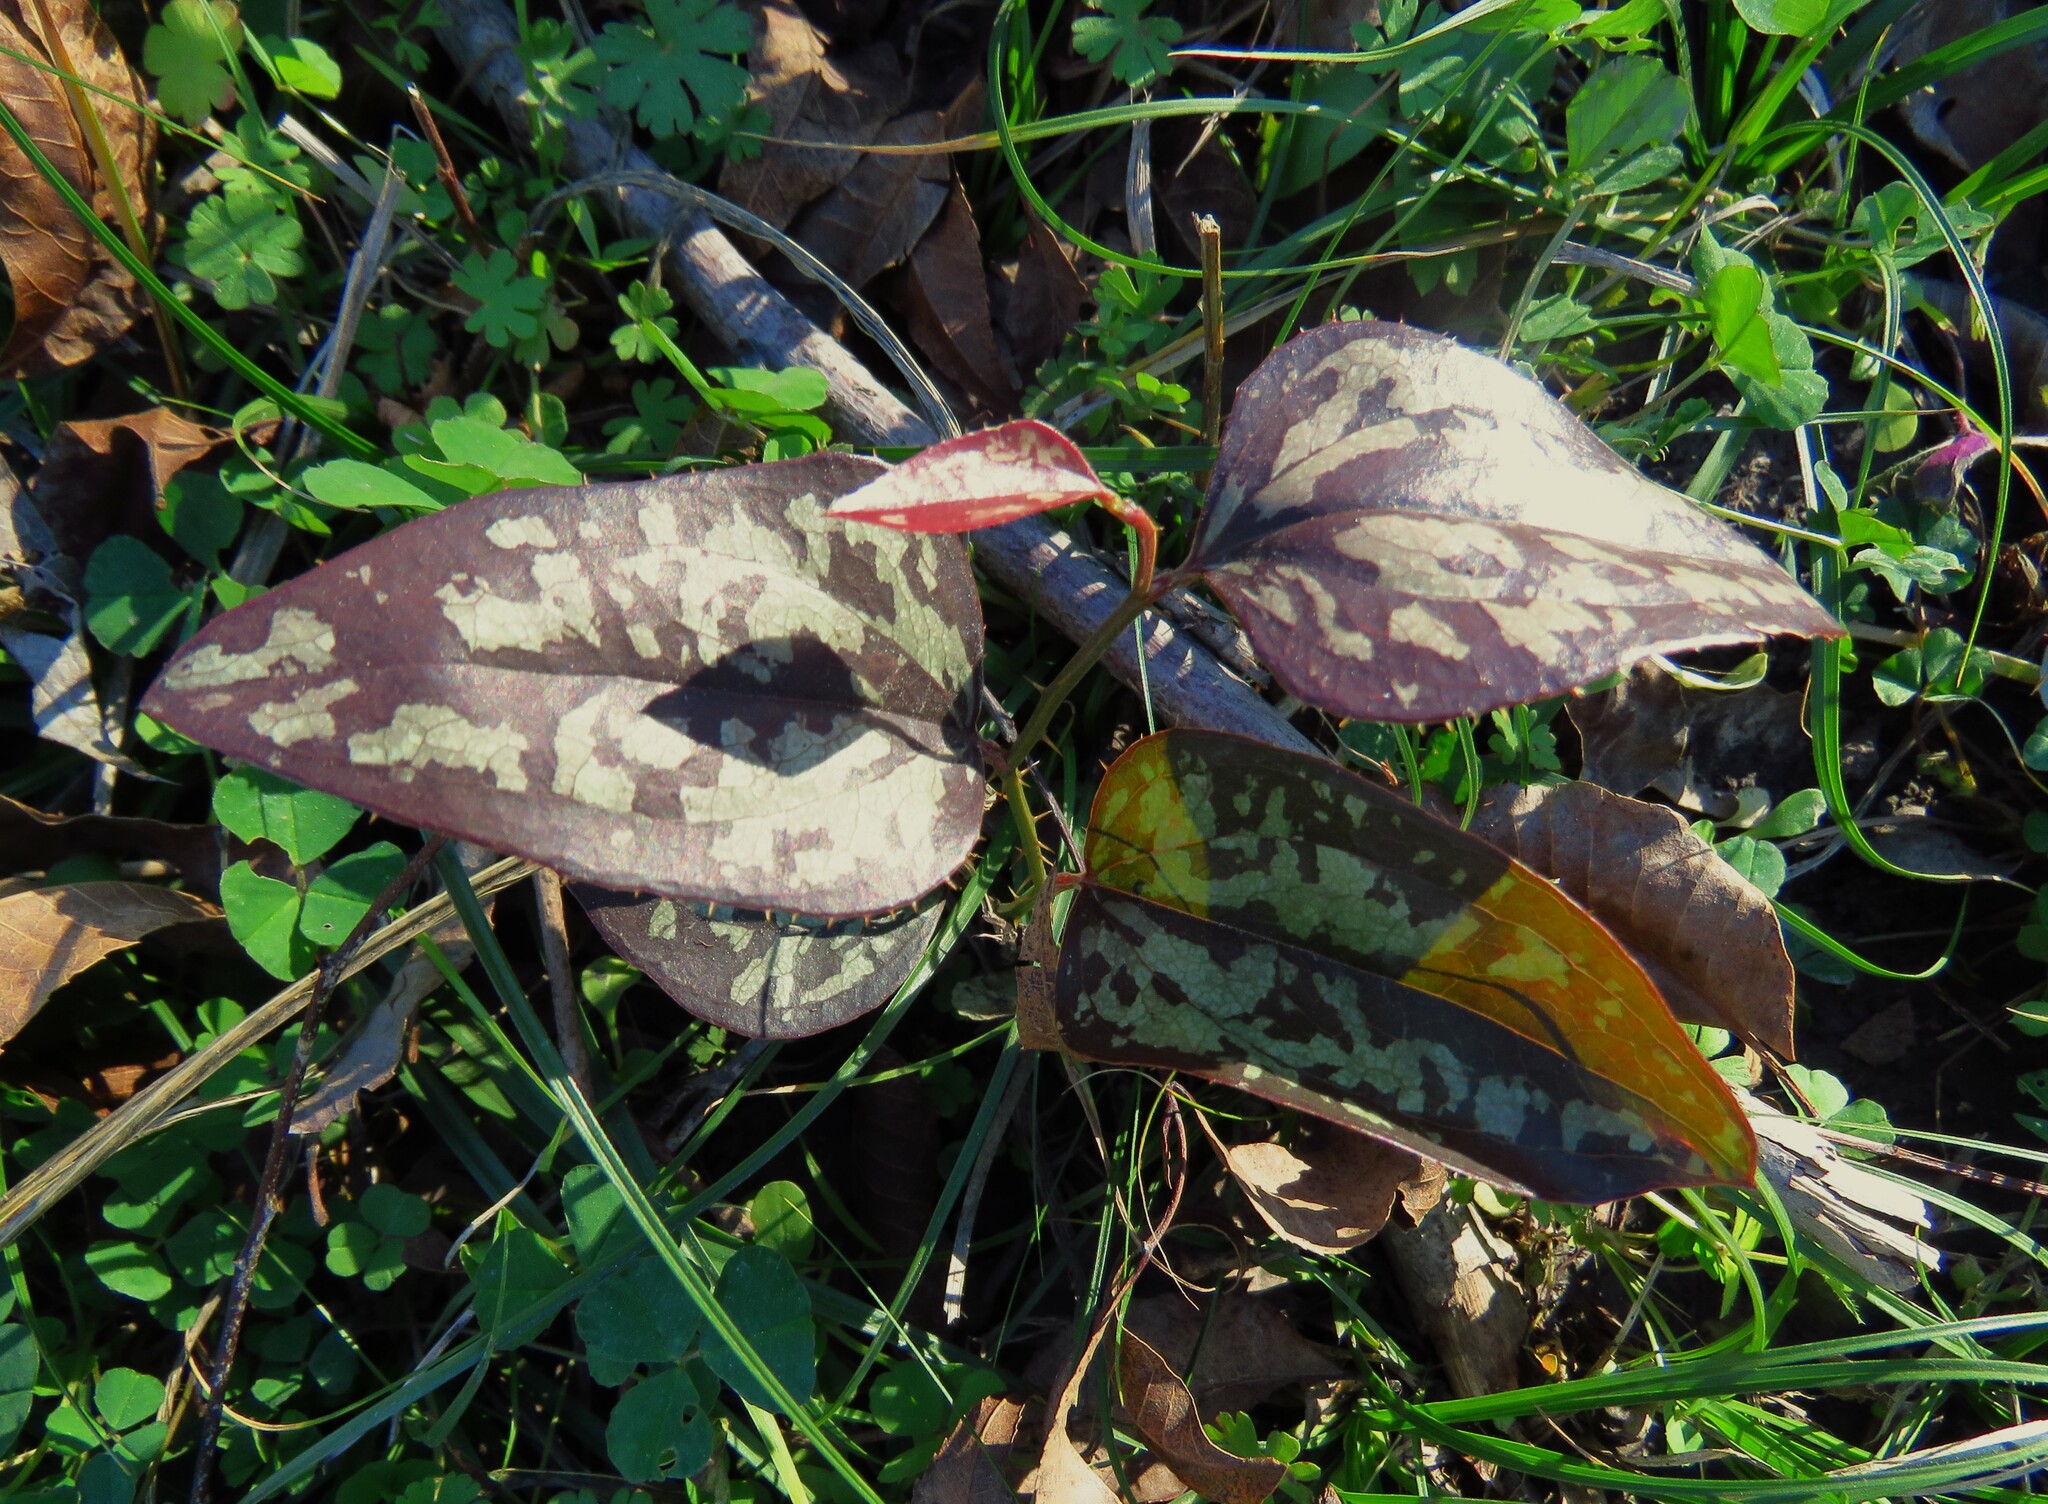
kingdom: Plantae
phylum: Tracheophyta
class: Liliopsida
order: Liliales
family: Smilacaceae
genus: Smilax
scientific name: Smilax bona-nox
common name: Catbrier
